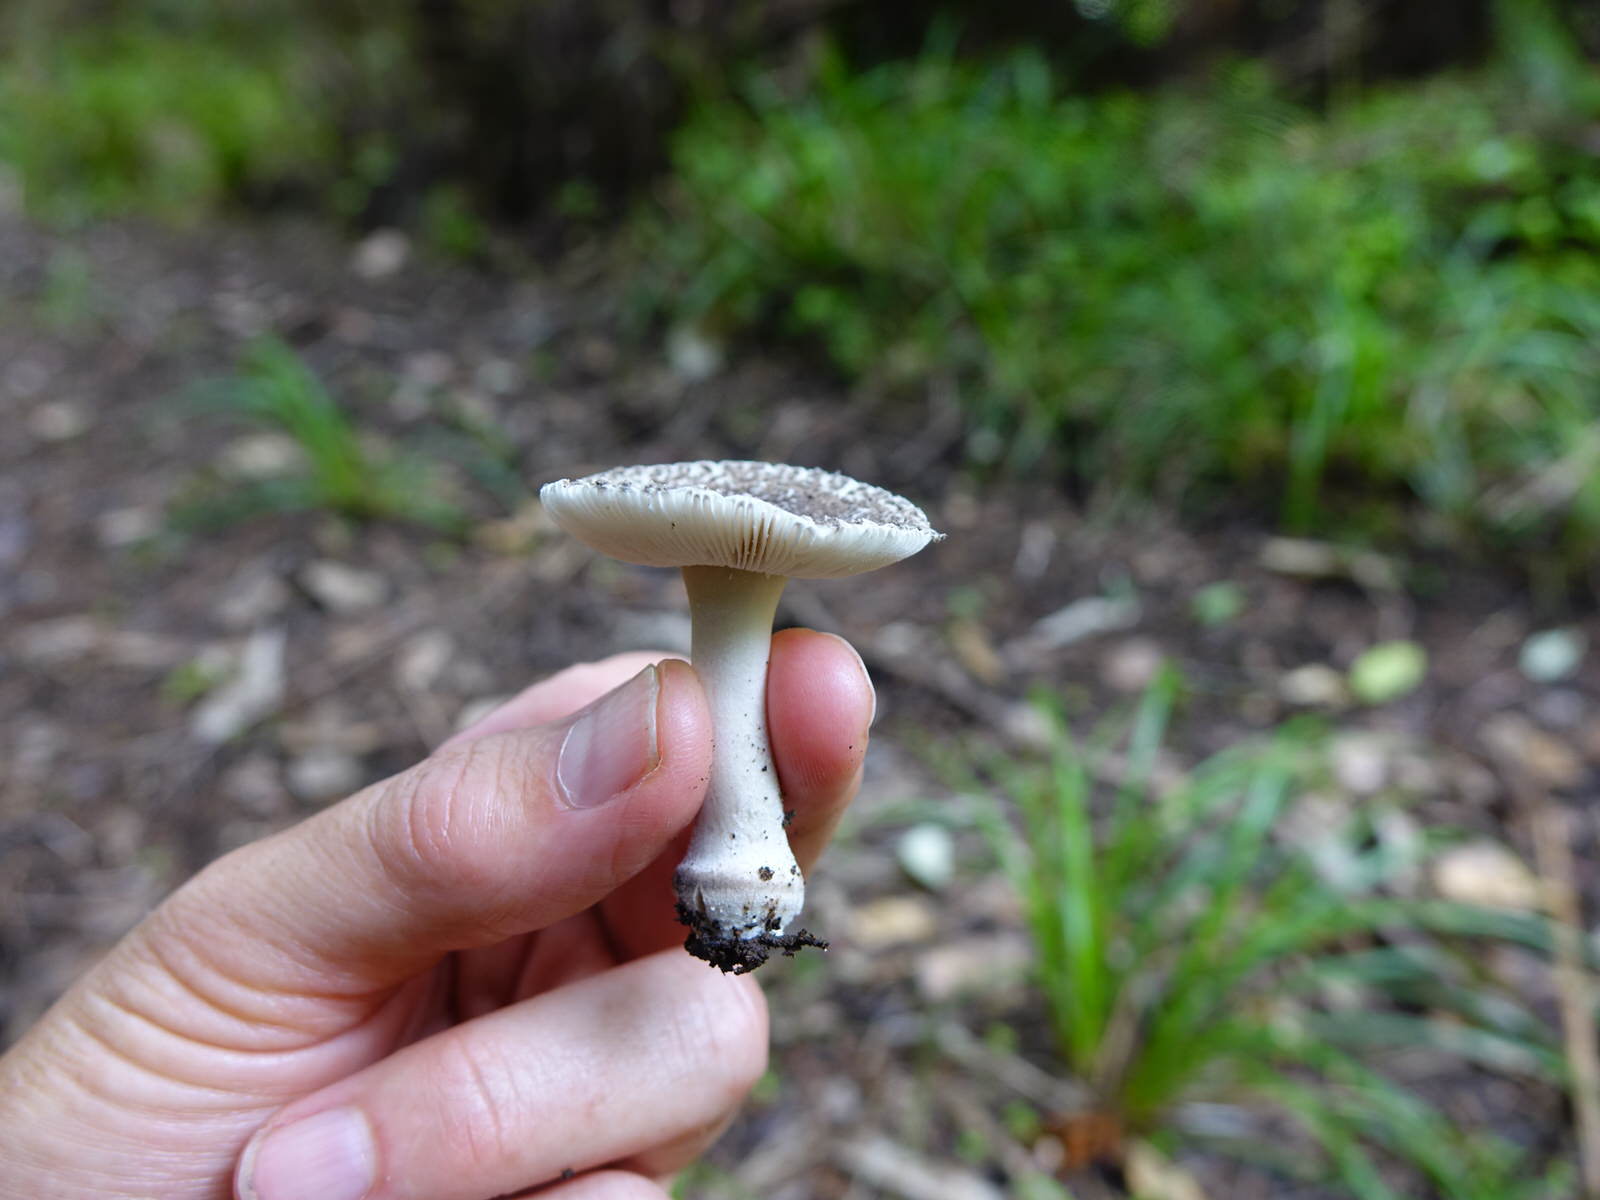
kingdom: Fungi
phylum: Basidiomycota
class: Agaricomycetes
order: Agaricales
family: Amanitaceae
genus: Amanita
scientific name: Amanita nehuta
